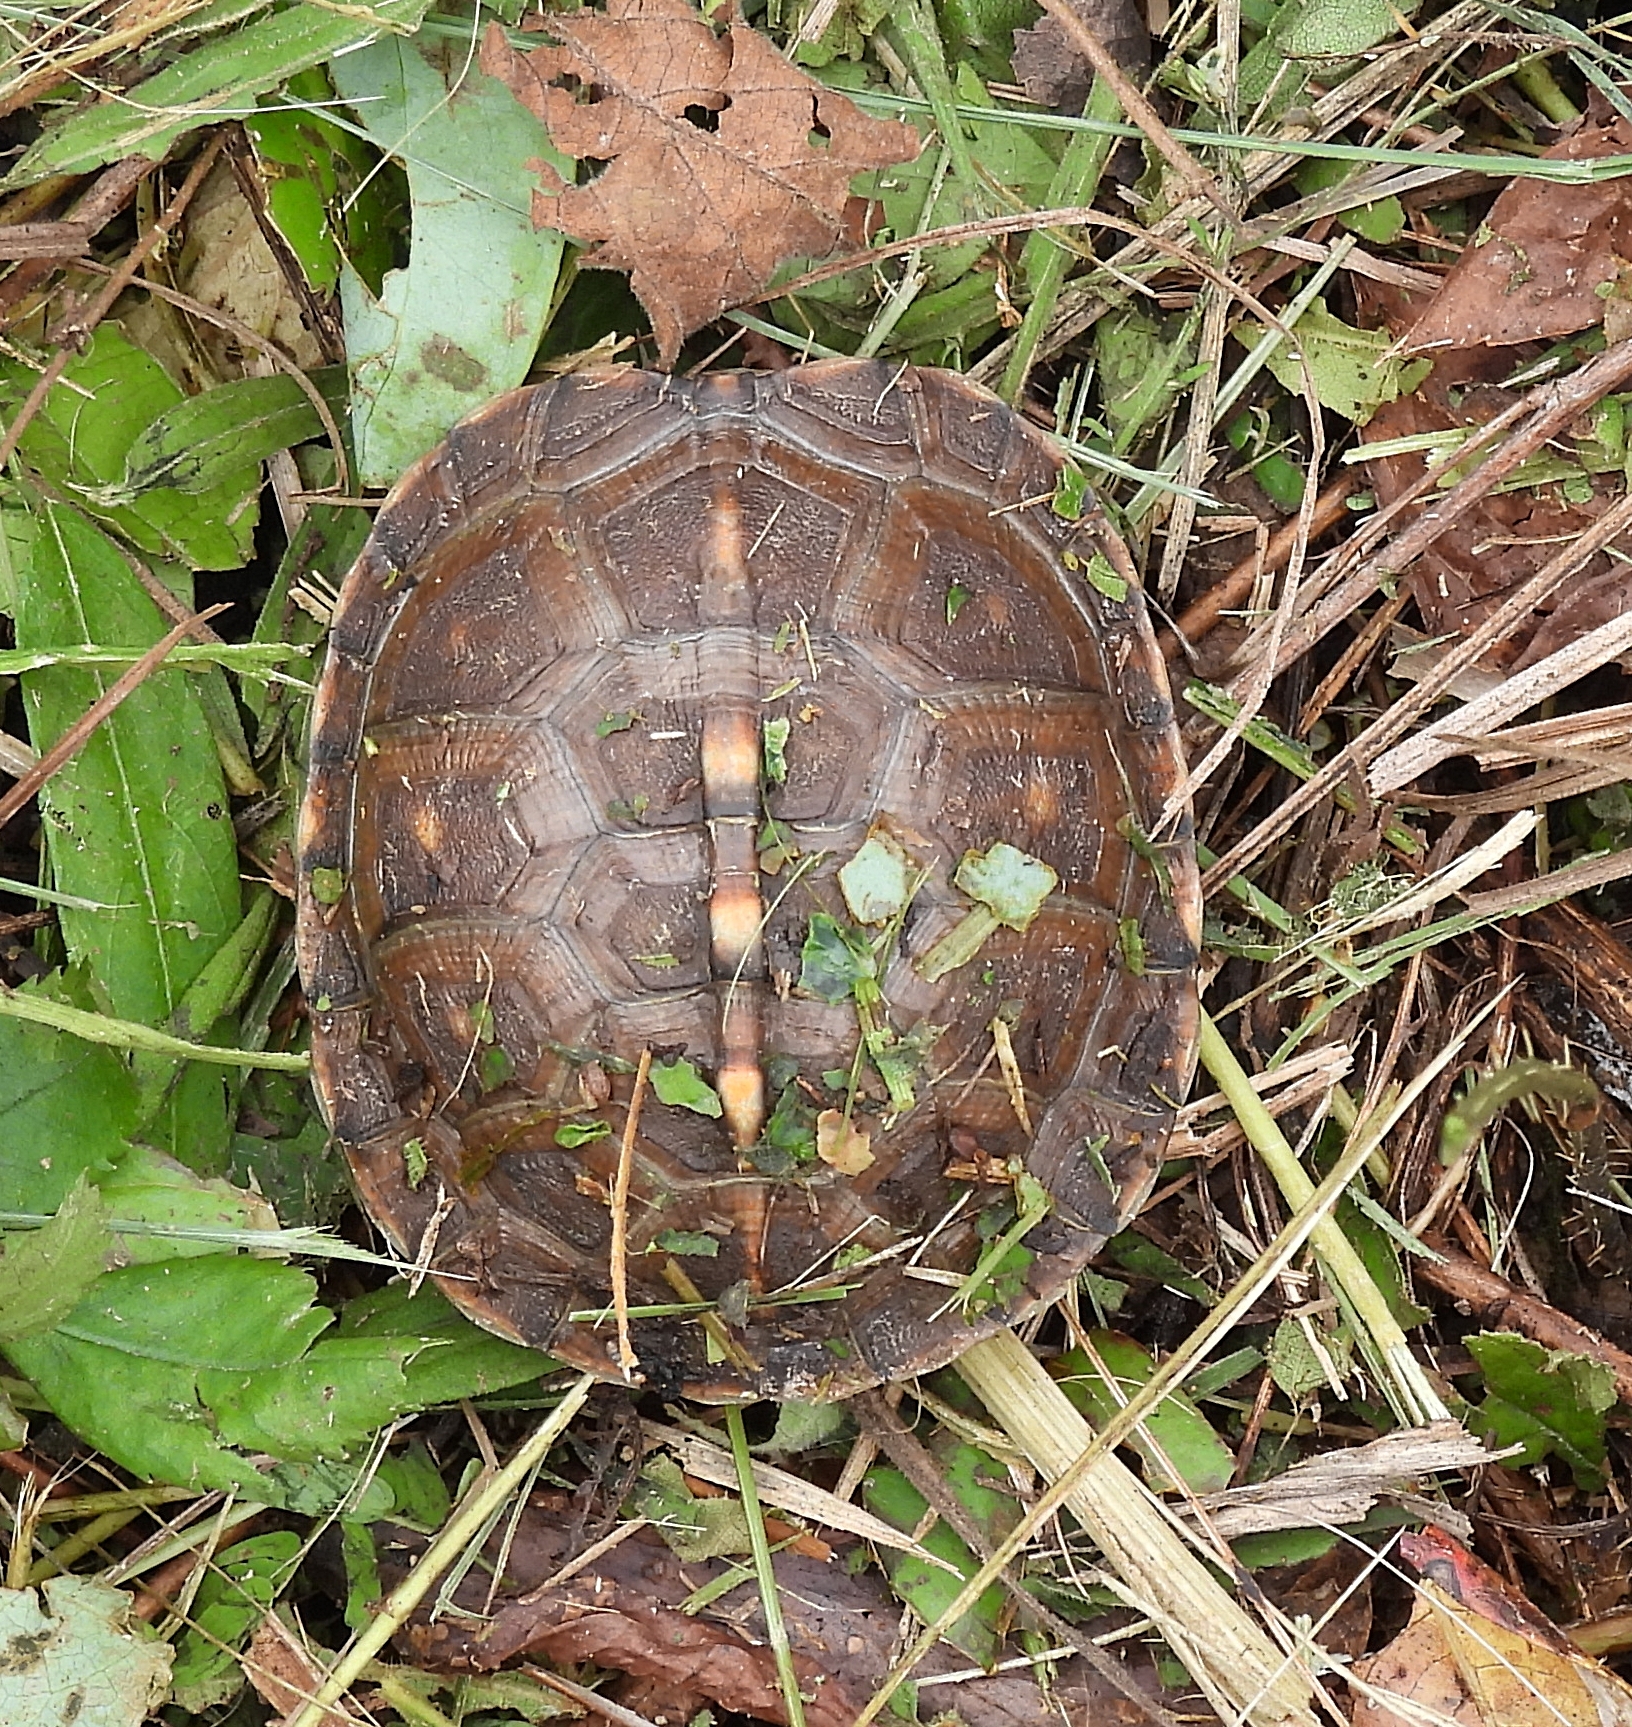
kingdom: Animalia
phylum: Chordata
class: Testudines
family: Emydidae
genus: Terrapene
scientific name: Terrapene carolina
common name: Common box turtle
